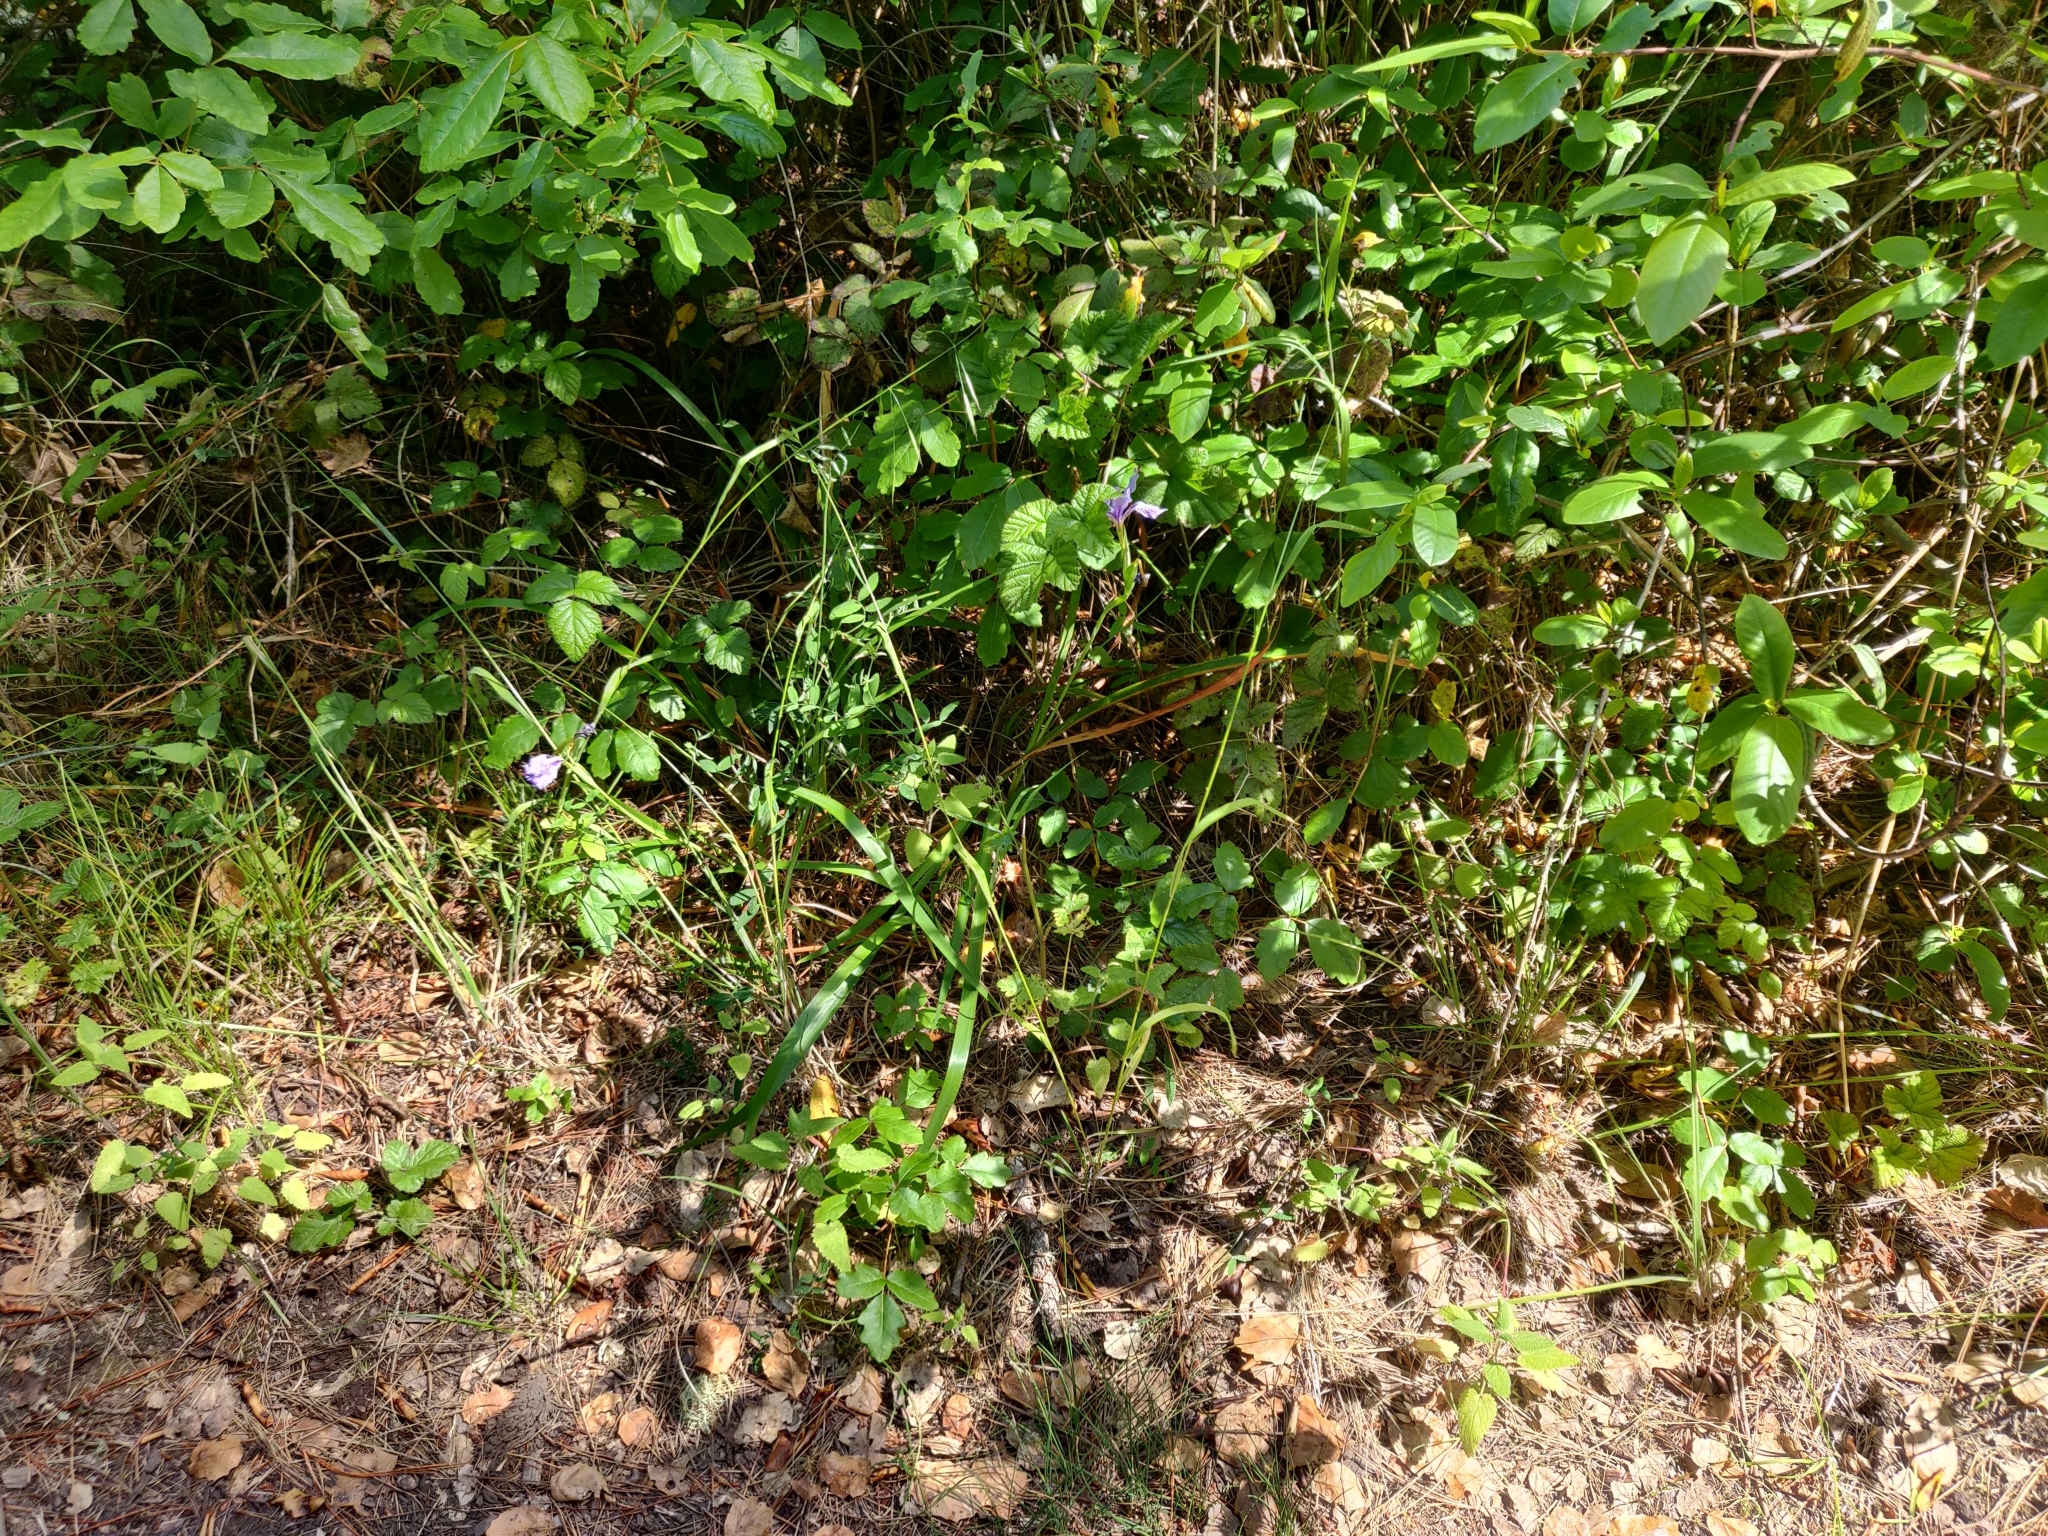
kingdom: Plantae
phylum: Tracheophyta
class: Liliopsida
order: Asparagales
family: Iridaceae
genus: Iris
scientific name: Iris douglasiana
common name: Marin iris
